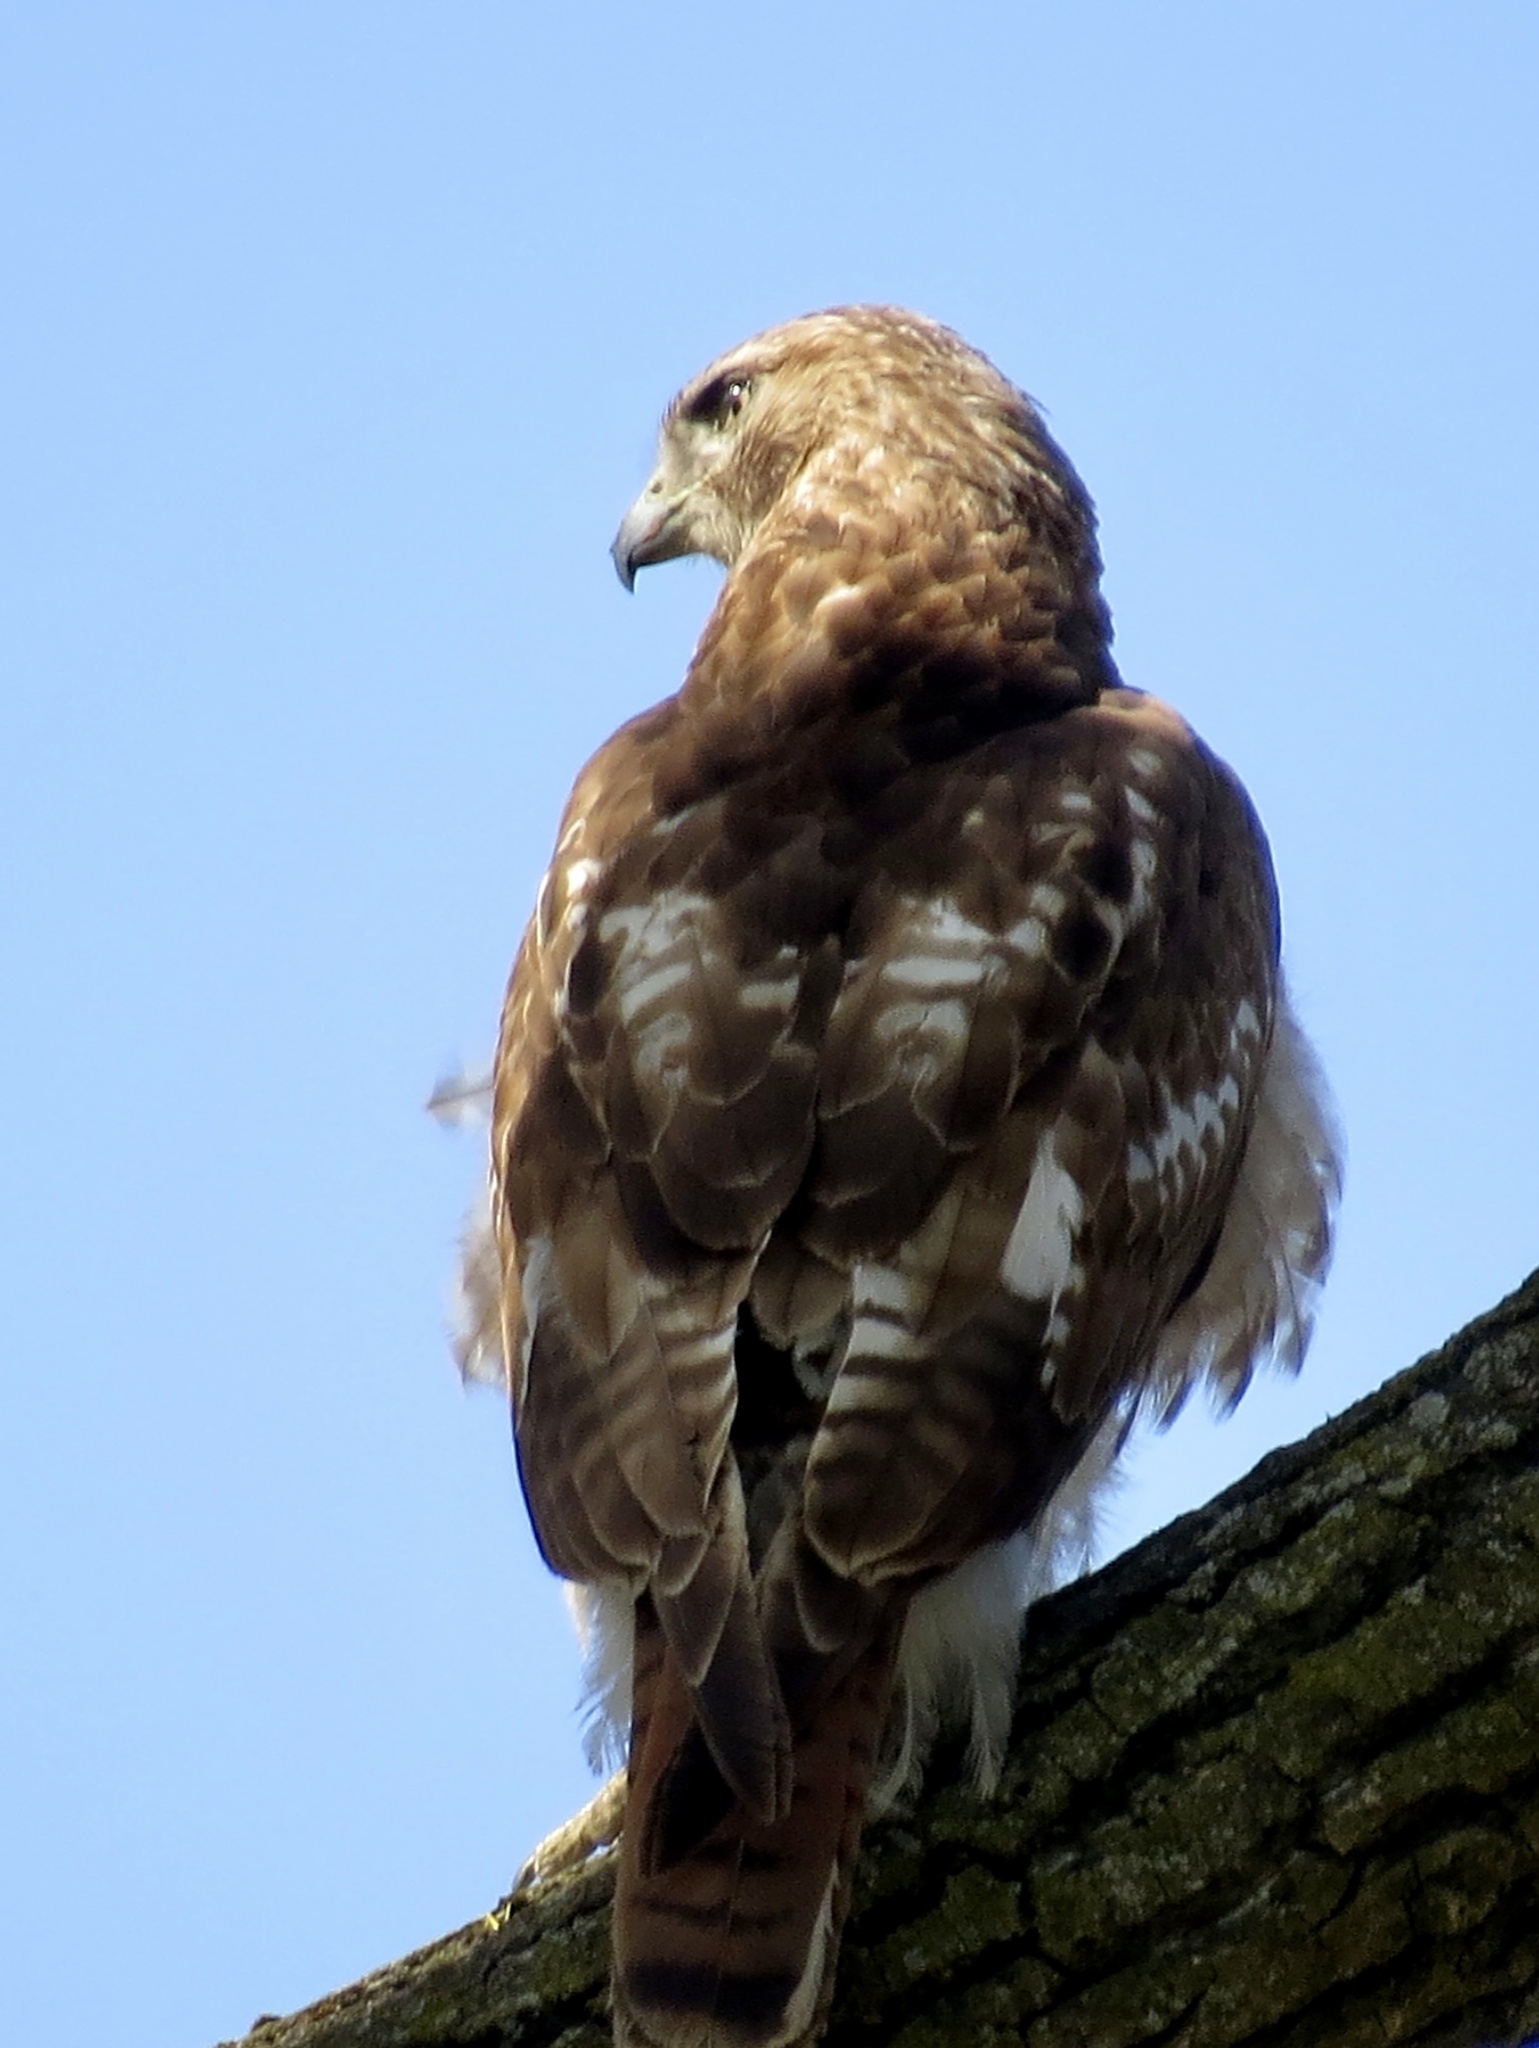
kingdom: Animalia
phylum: Chordata
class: Aves
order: Accipitriformes
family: Accipitridae
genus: Buteo
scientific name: Buteo jamaicensis
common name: Red-tailed hawk
